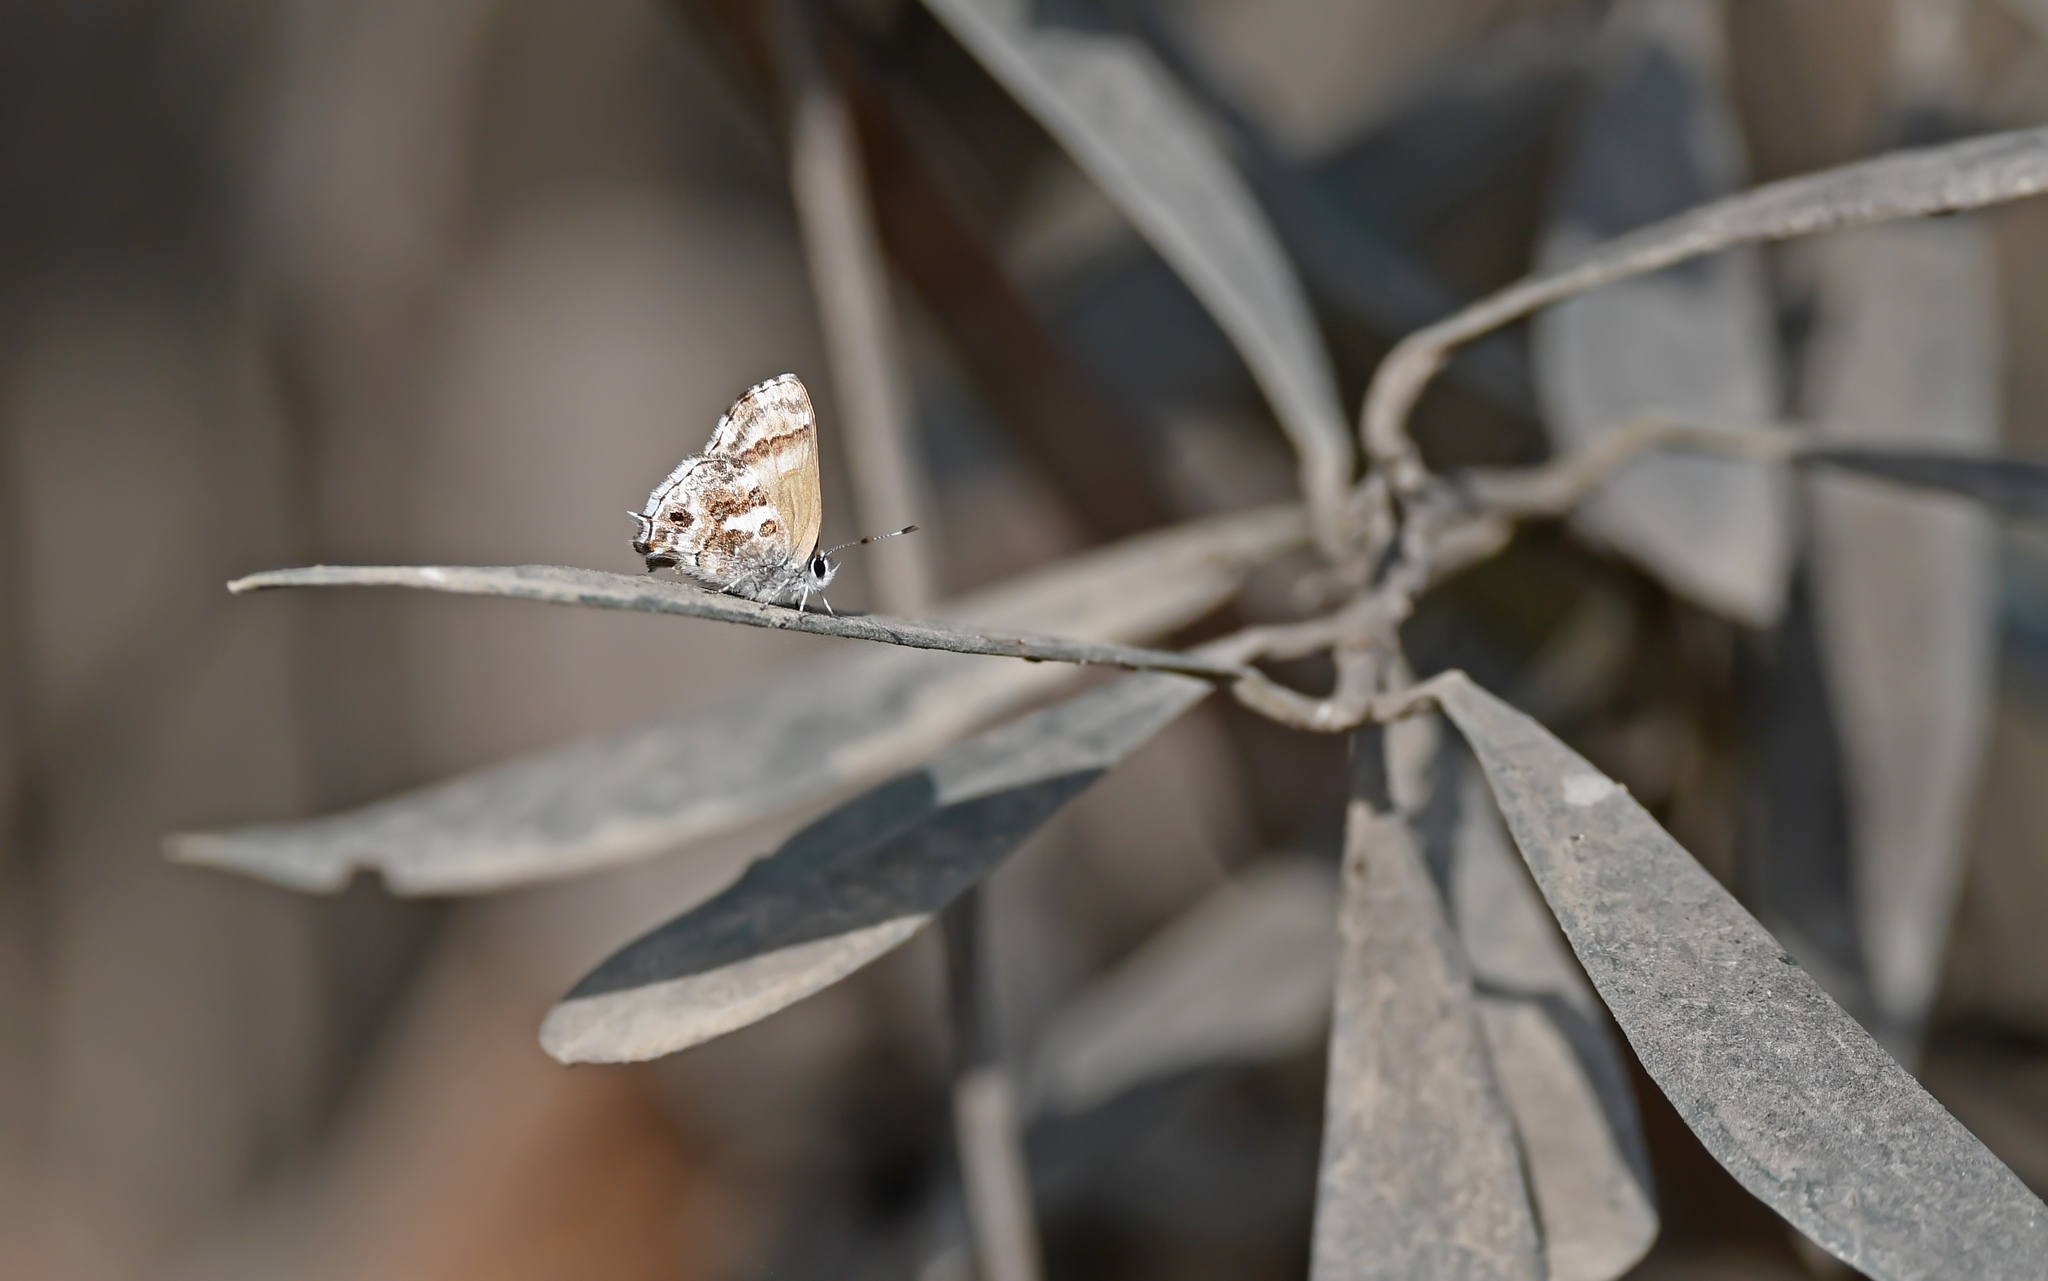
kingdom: Animalia
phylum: Arthropoda
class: Insecta
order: Lepidoptera
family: Lycaenidae
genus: Strymon
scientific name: Strymon
